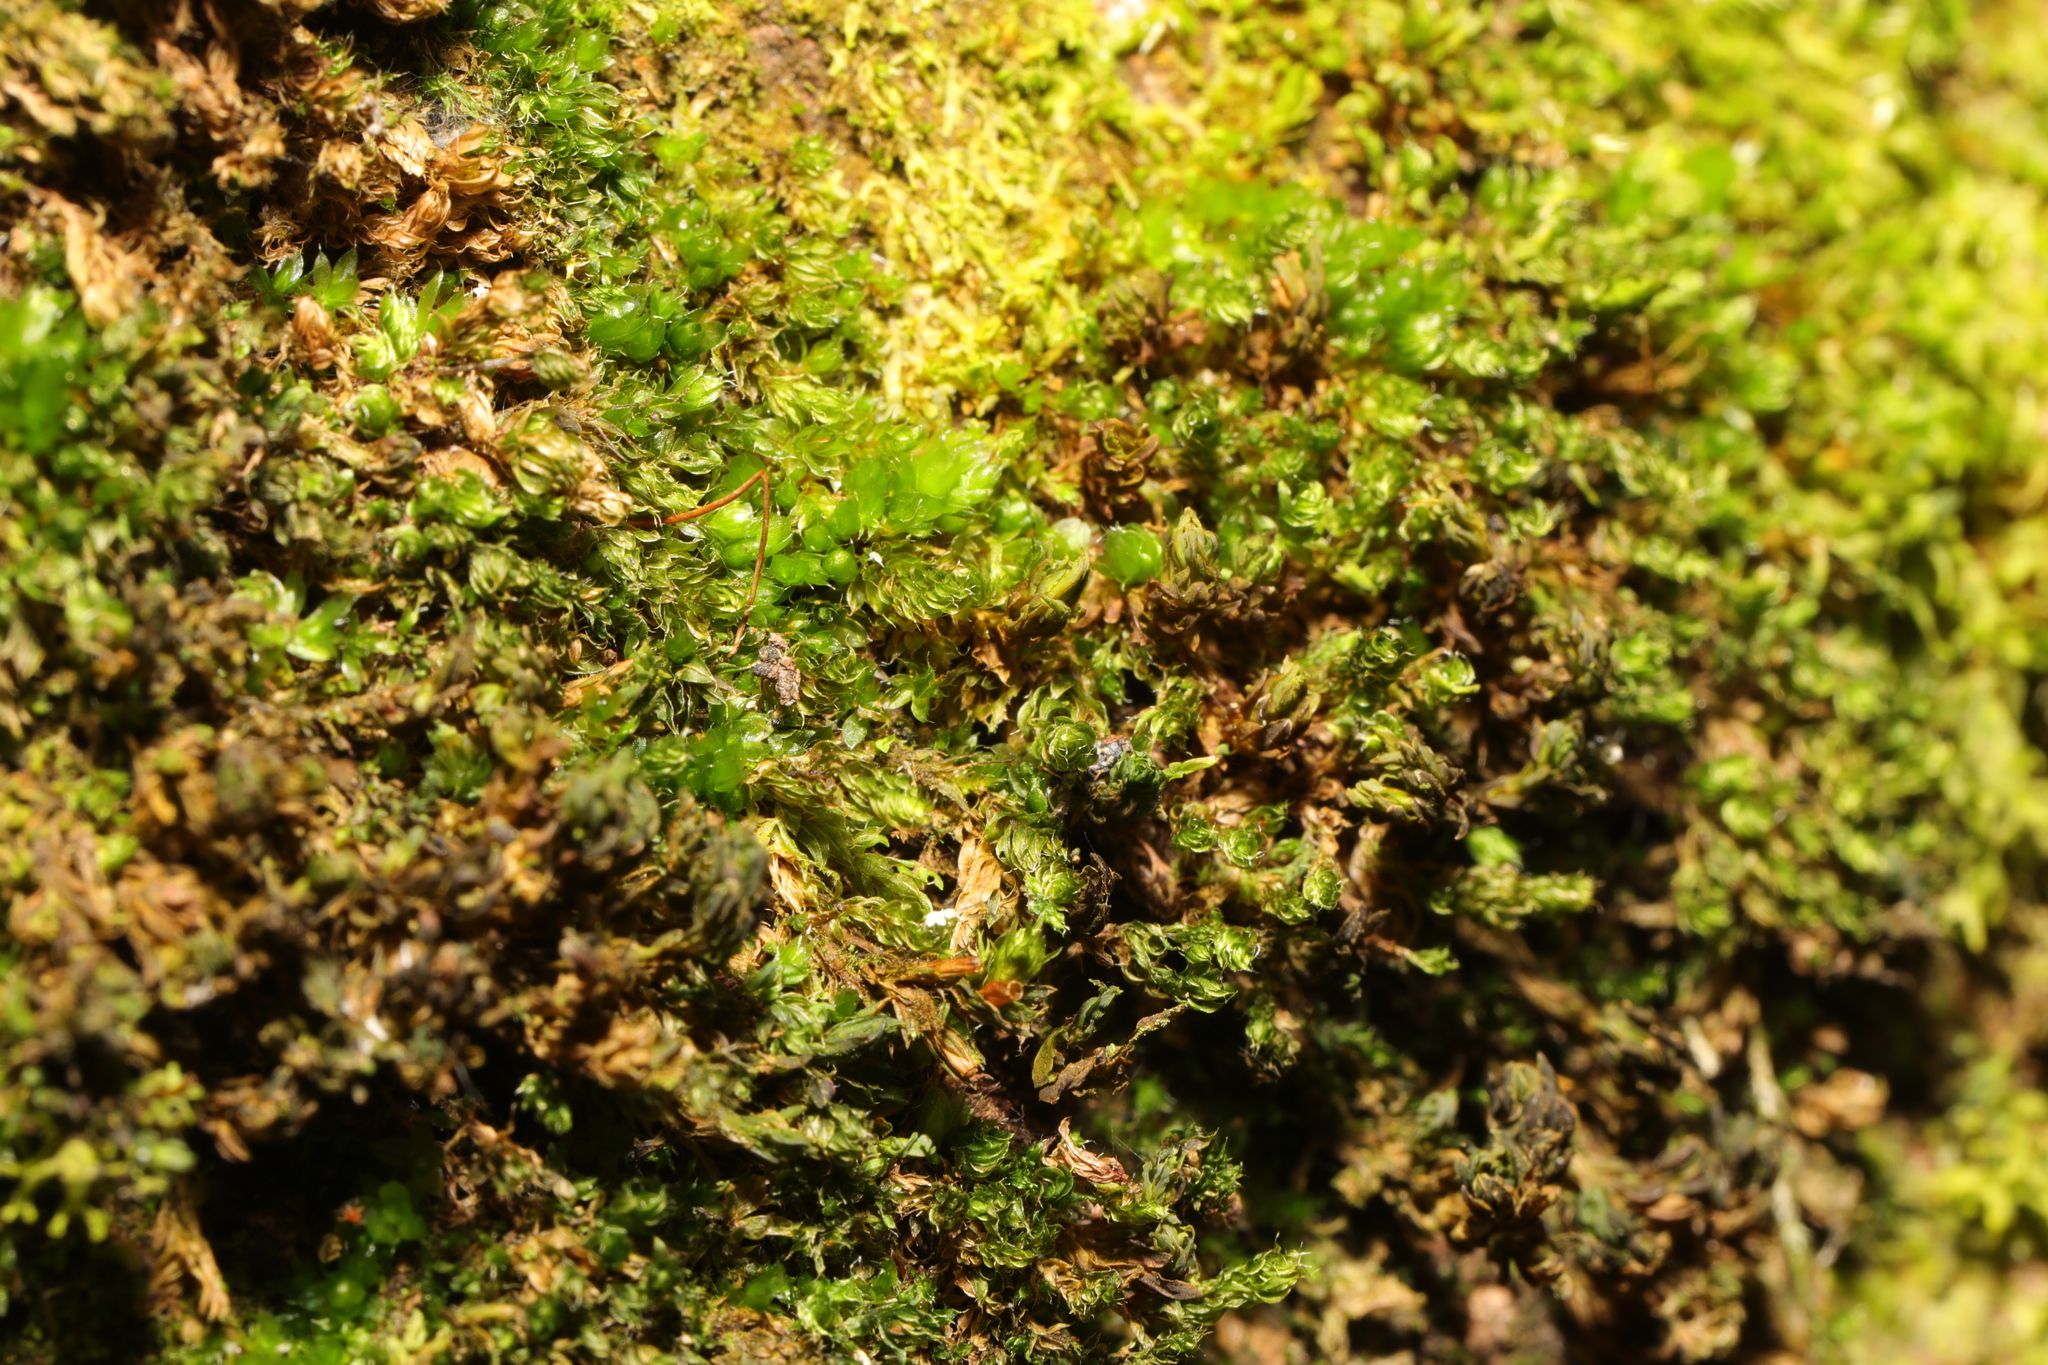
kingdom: Plantae
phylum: Bryophyta
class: Bryopsida
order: Bryales
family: Bryaceae
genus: Rosulabryum
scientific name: Rosulabryum capillare
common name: Capillary thread-moss
